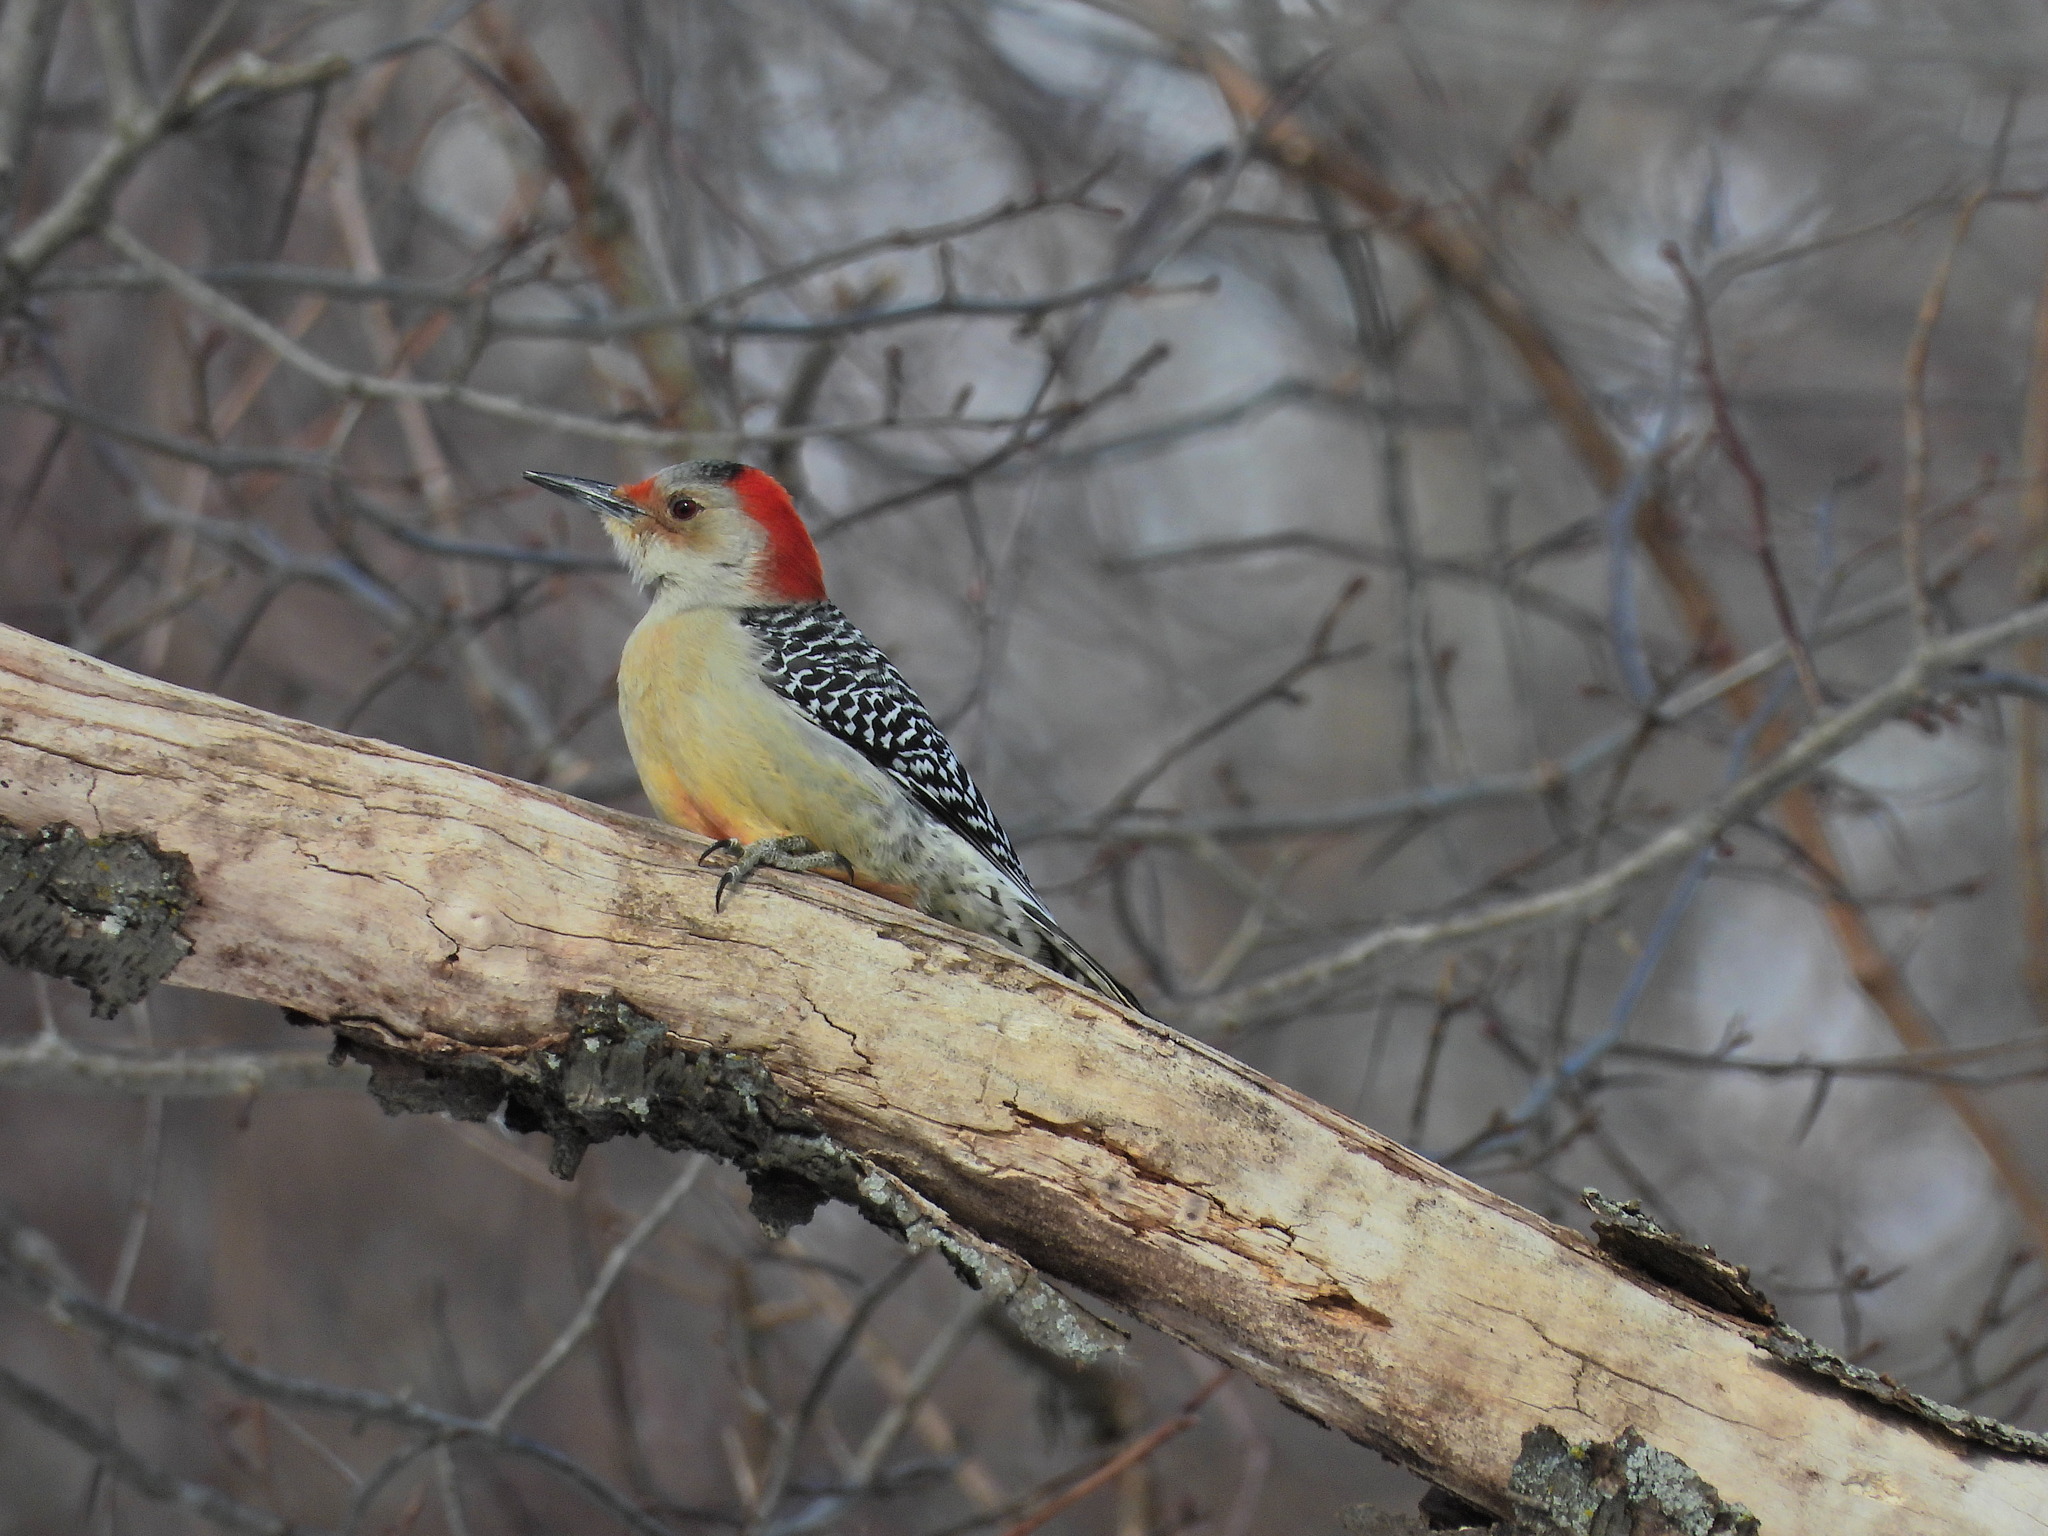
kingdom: Animalia
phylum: Chordata
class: Aves
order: Piciformes
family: Picidae
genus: Melanerpes
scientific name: Melanerpes carolinus
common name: Red-bellied woodpecker
